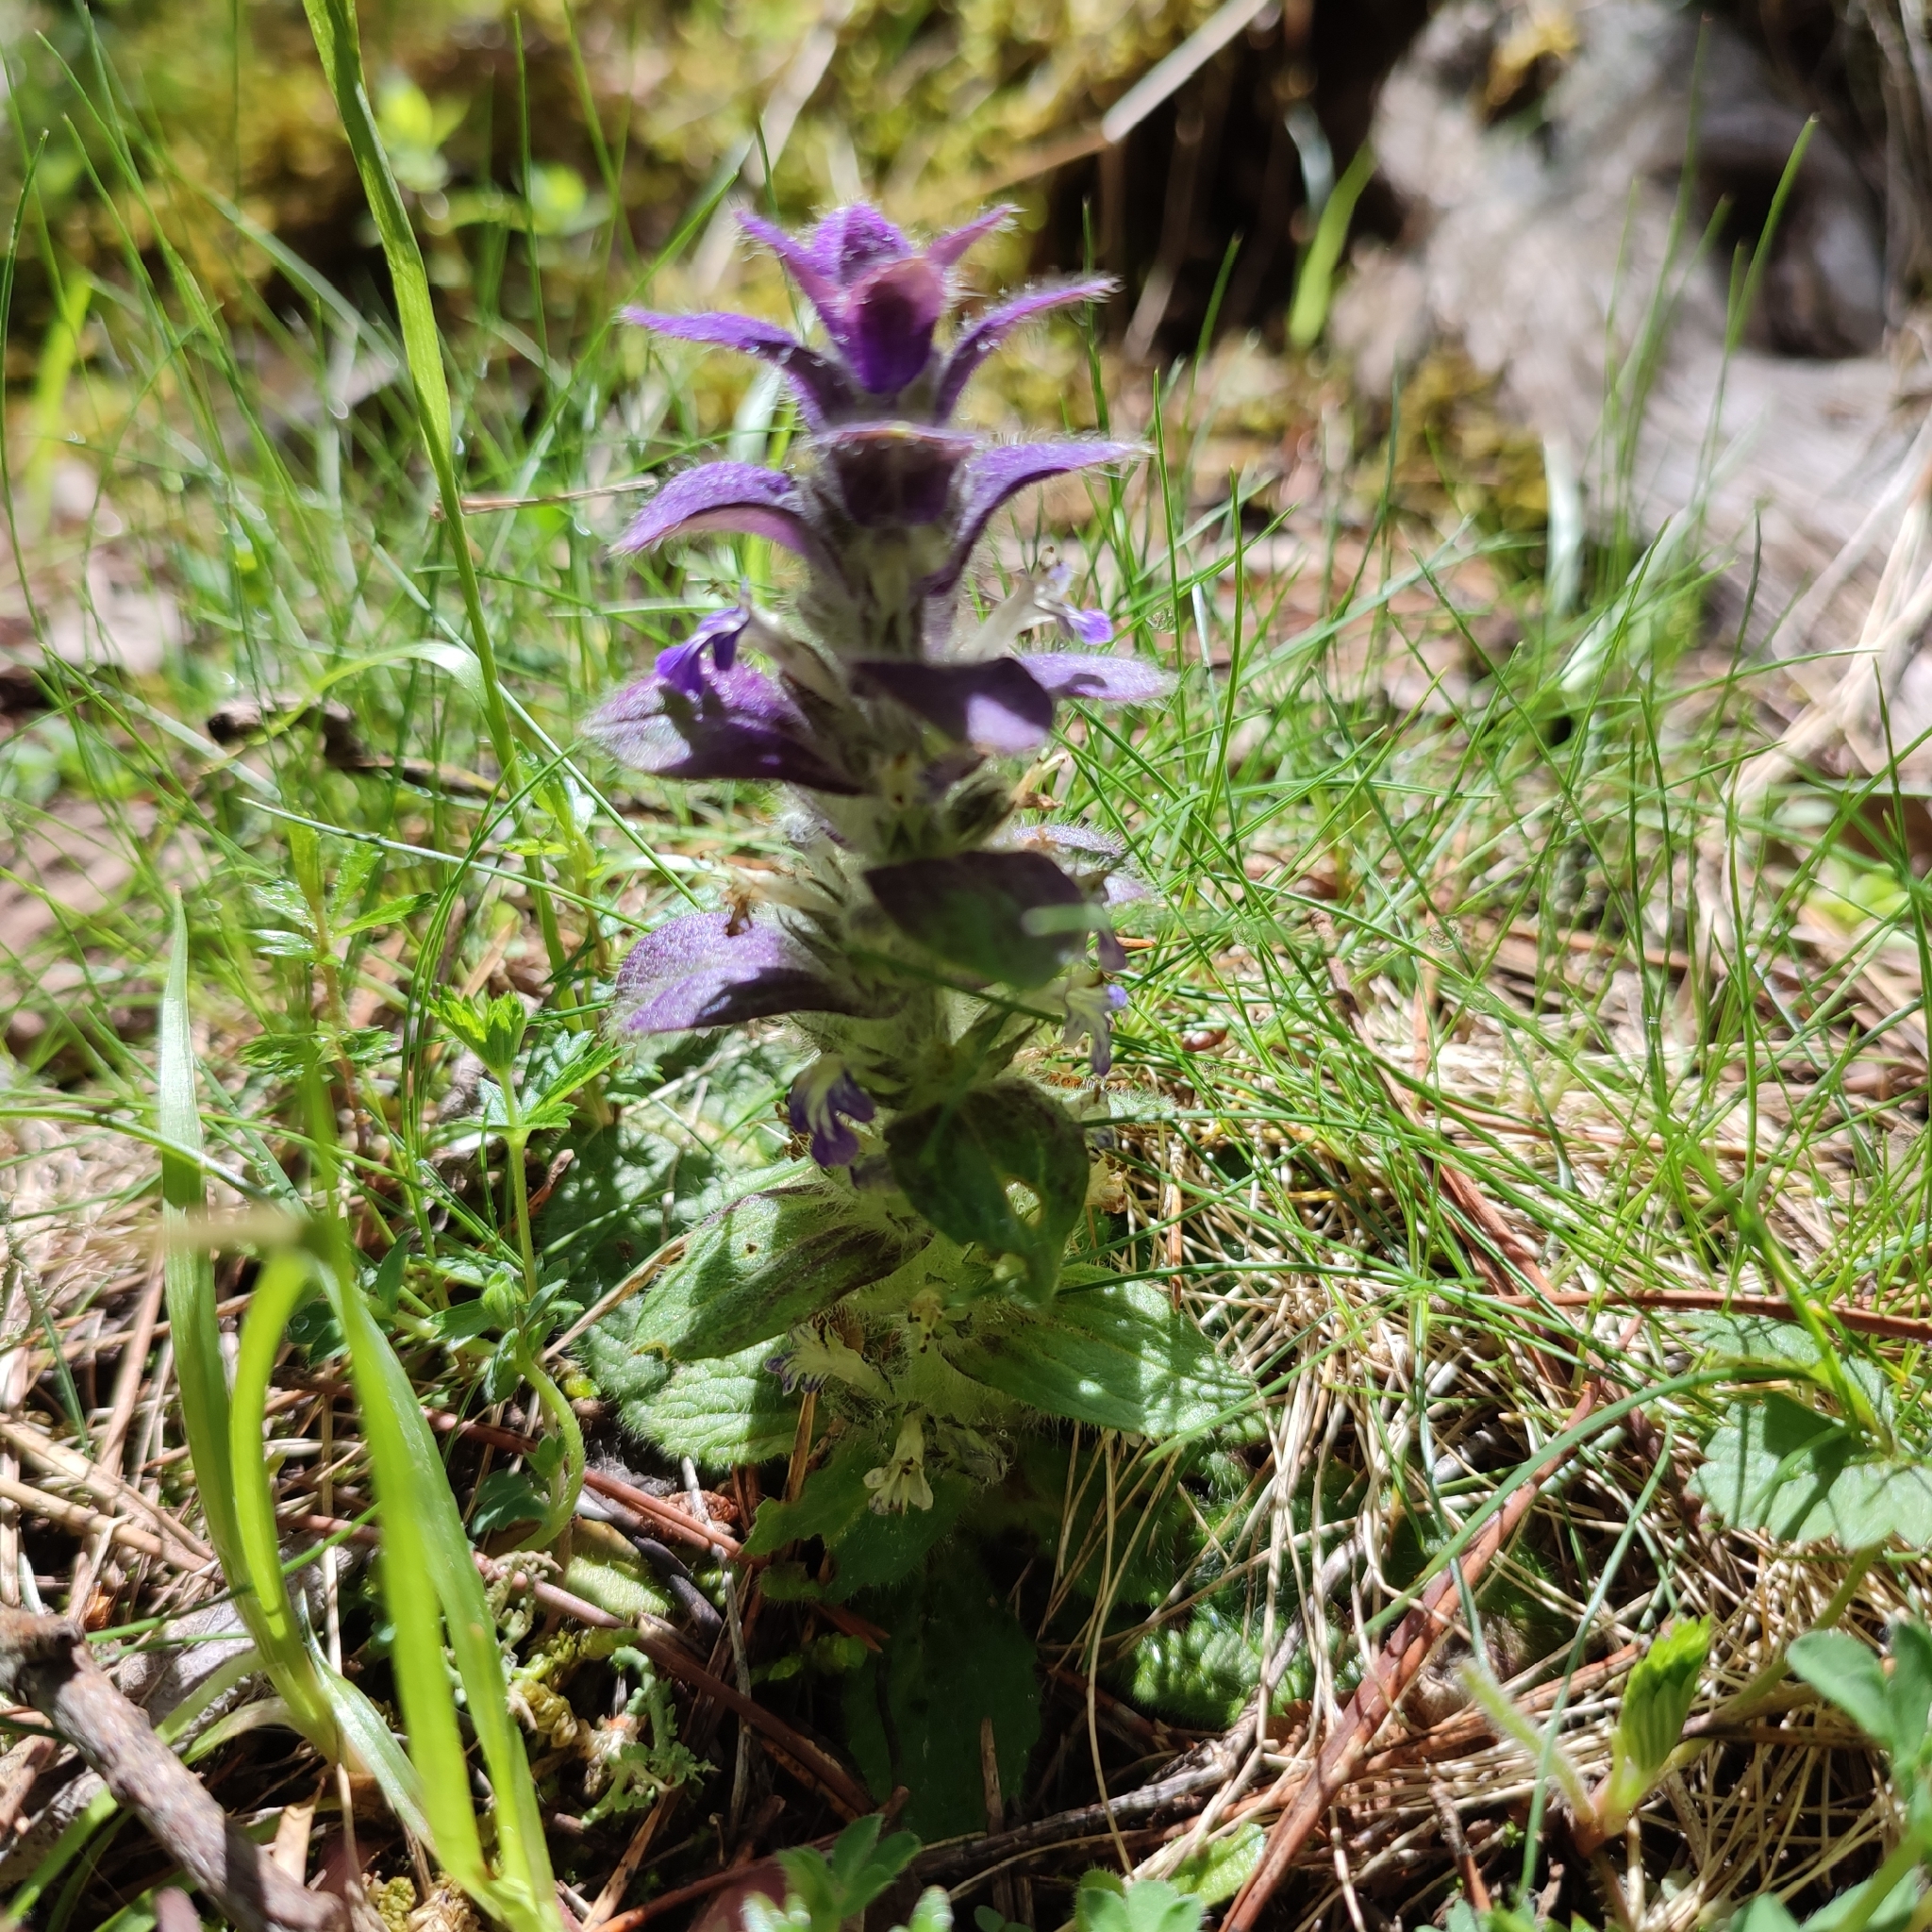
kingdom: Plantae
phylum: Tracheophyta
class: Magnoliopsida
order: Lamiales
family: Lamiaceae
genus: Ajuga
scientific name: Ajuga pyramidalis
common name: Pyramid bugle
